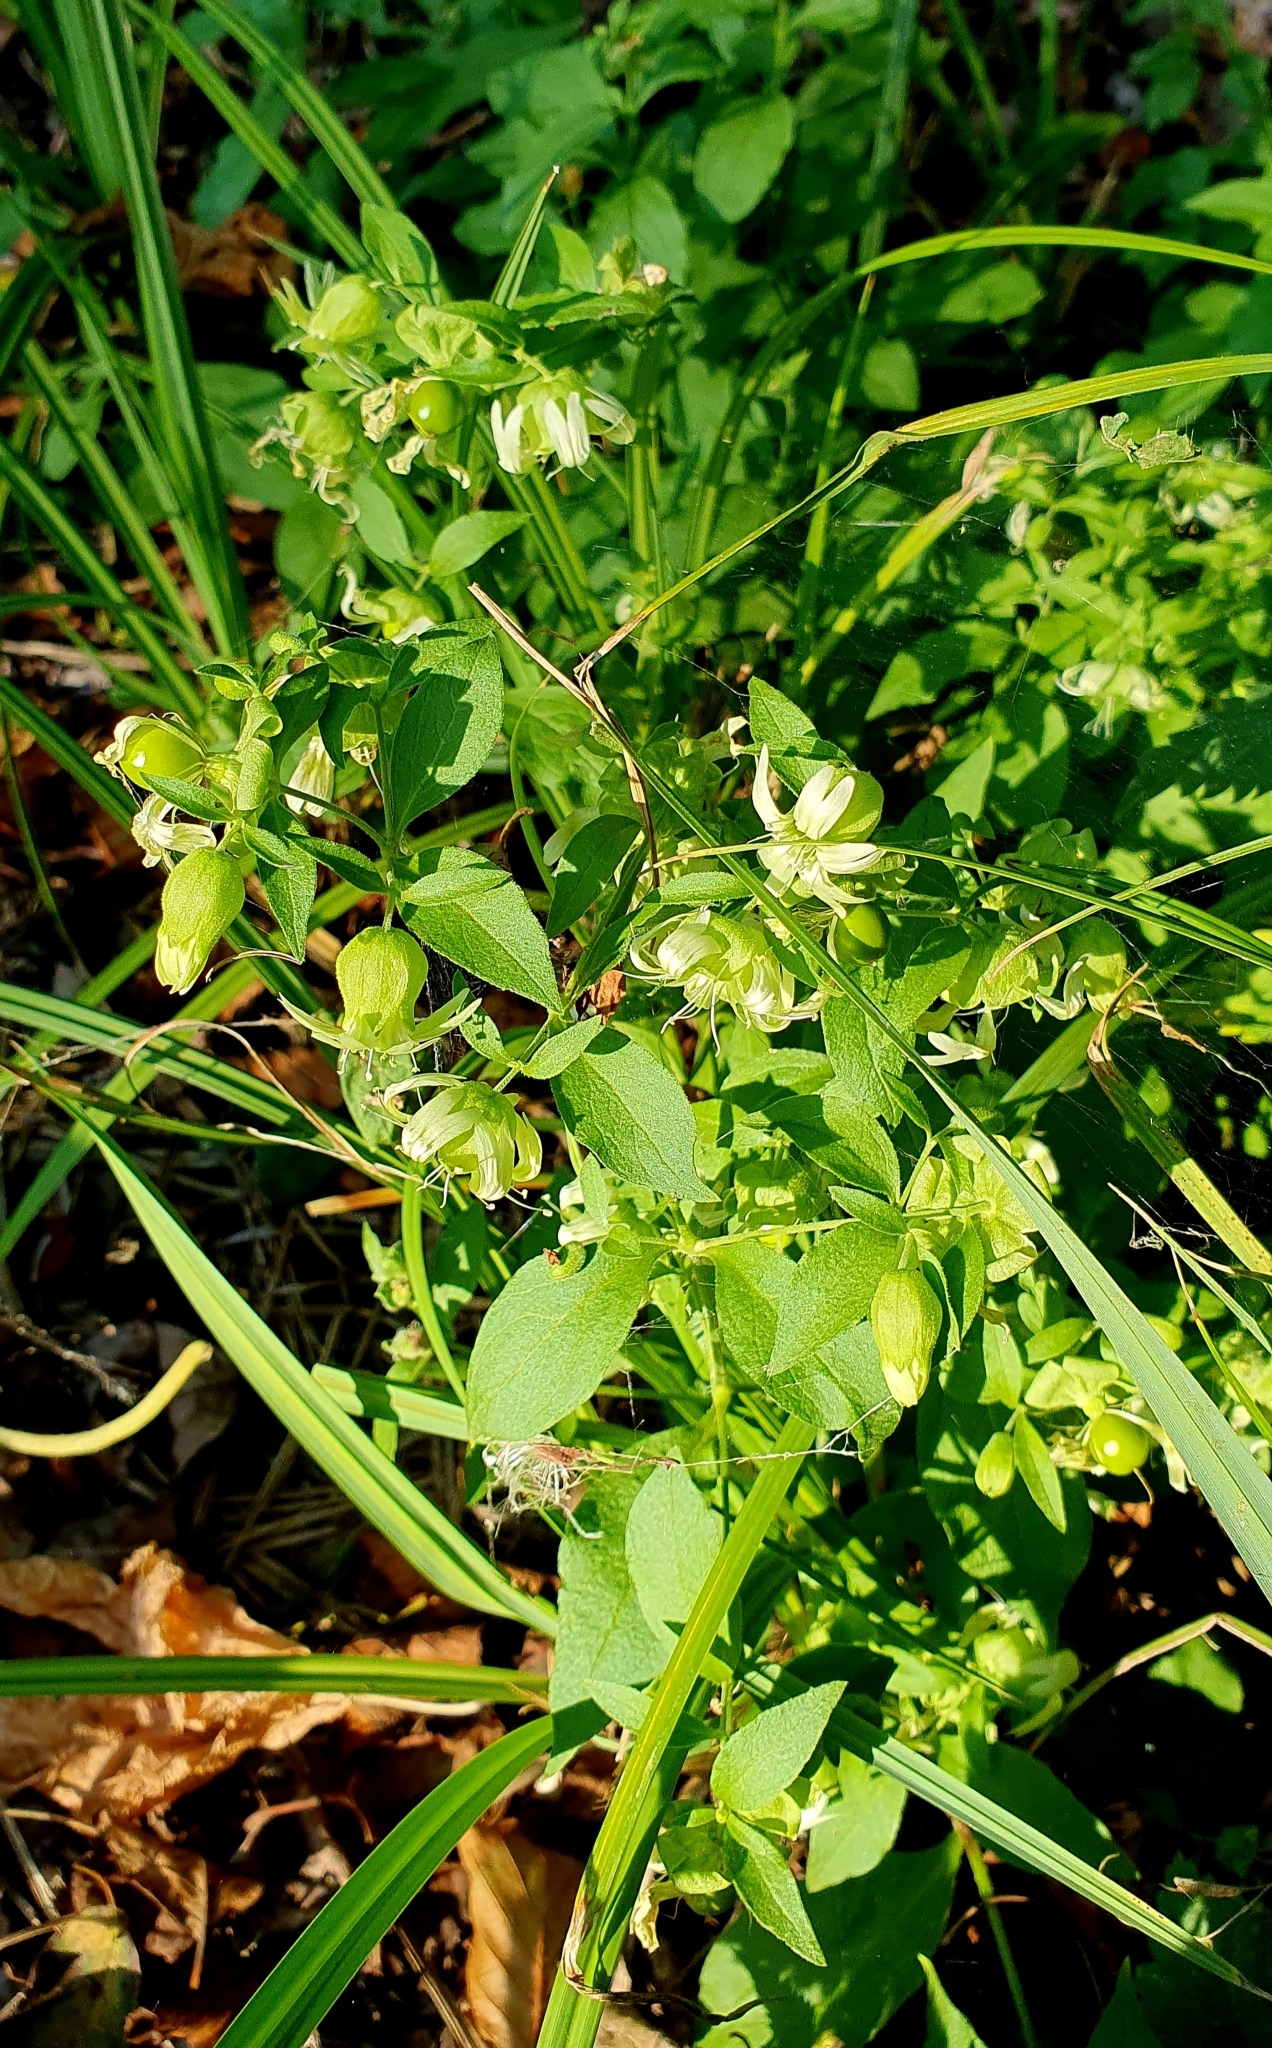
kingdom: Plantae
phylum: Tracheophyta
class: Magnoliopsida
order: Caryophyllales
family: Caryophyllaceae
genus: Silene
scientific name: Silene baccifera
